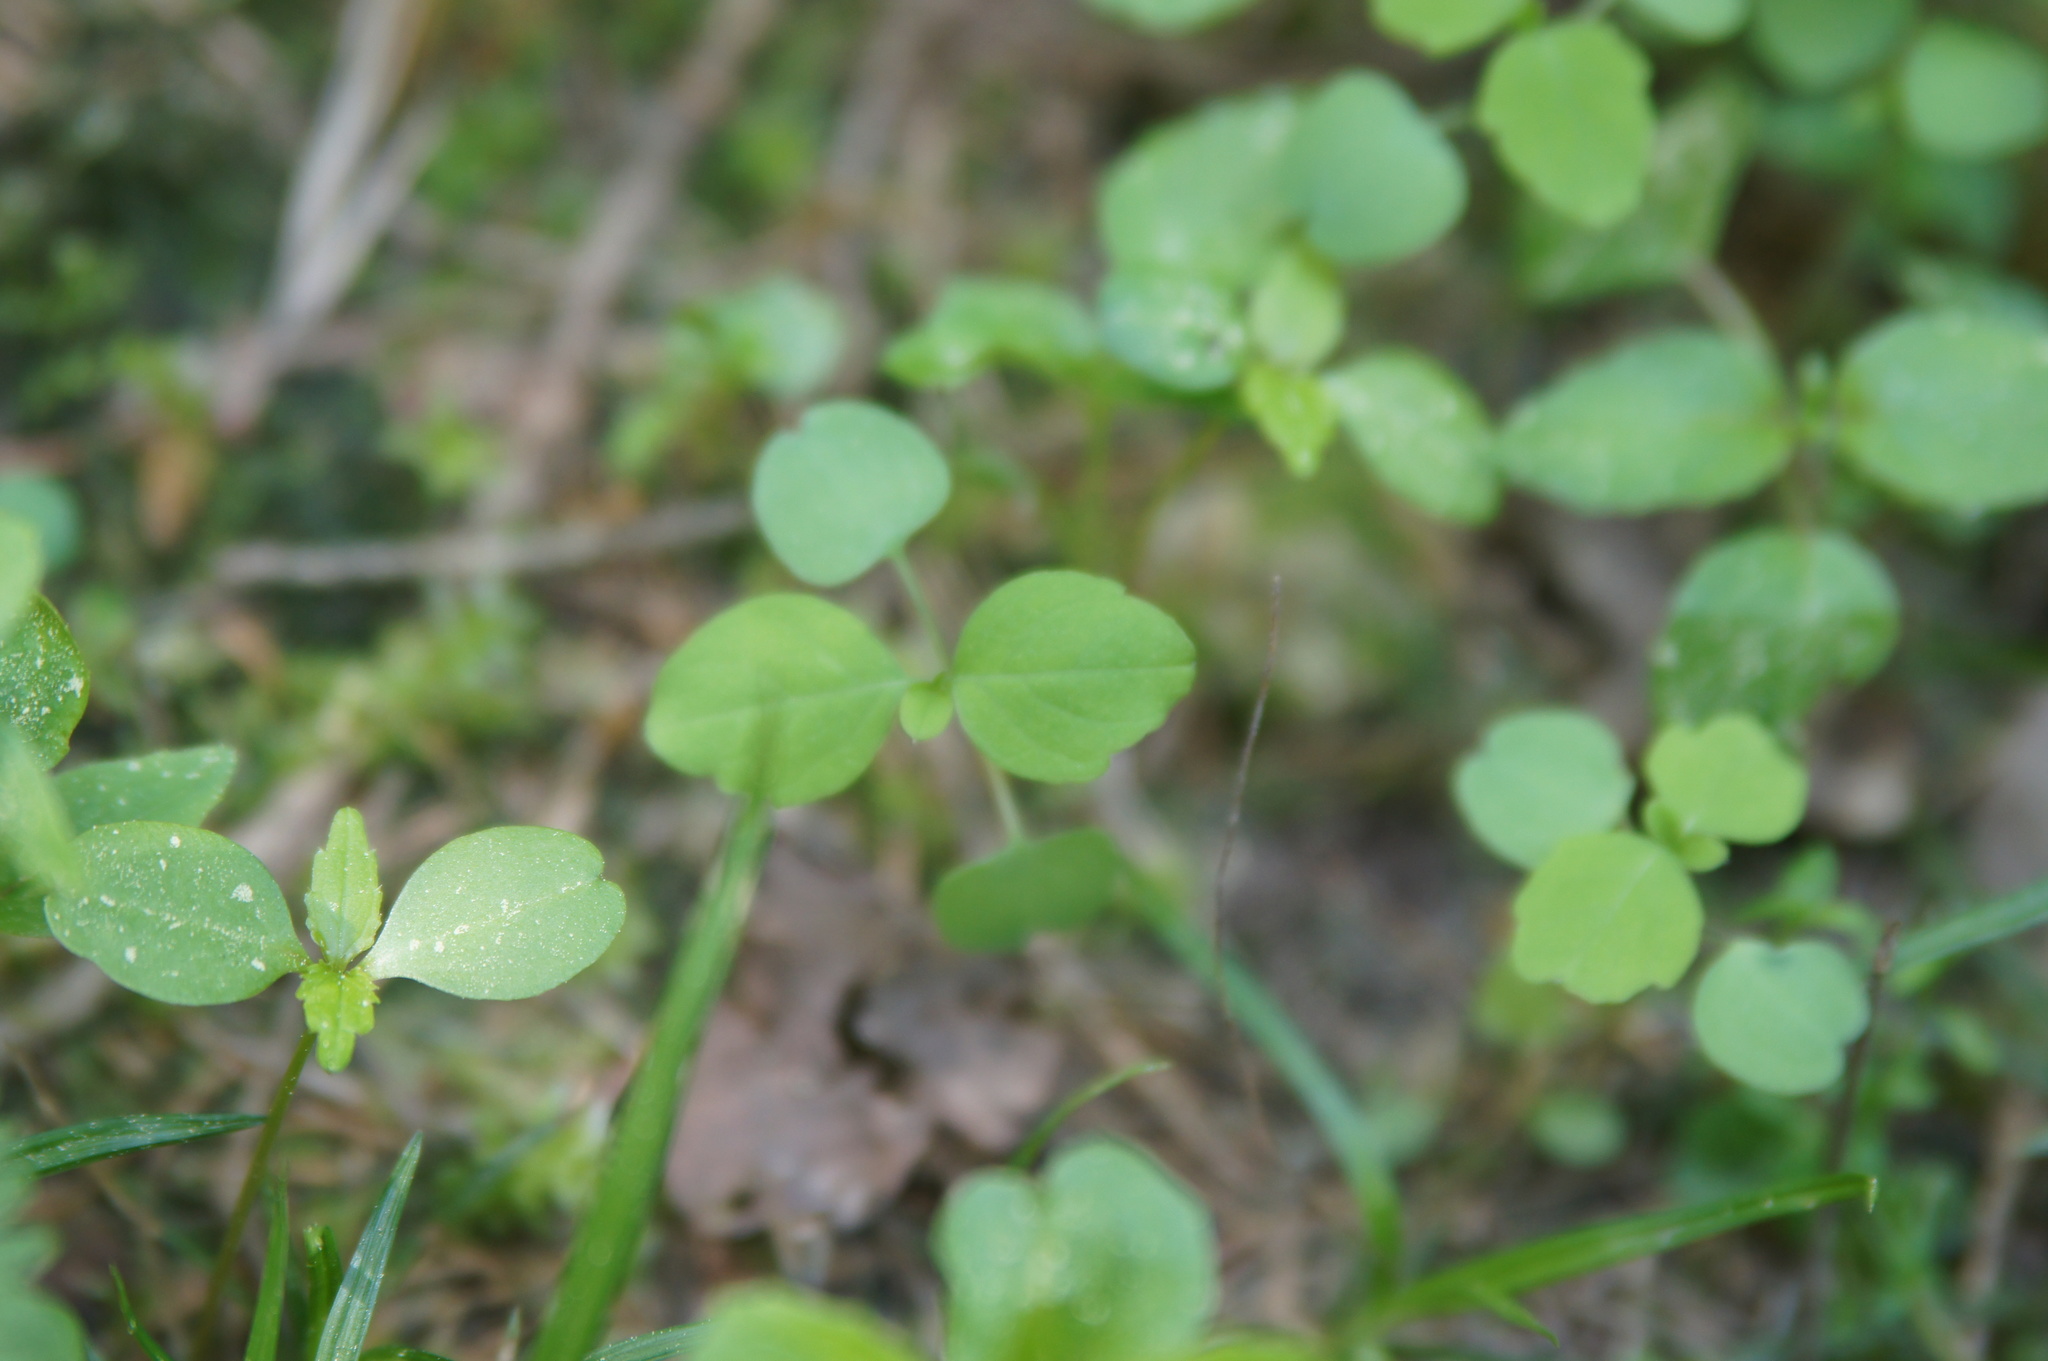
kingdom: Plantae
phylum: Tracheophyta
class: Magnoliopsida
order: Ericales
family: Balsaminaceae
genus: Impatiens
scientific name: Impatiens noli-tangere
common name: Touch-me-not balsam
